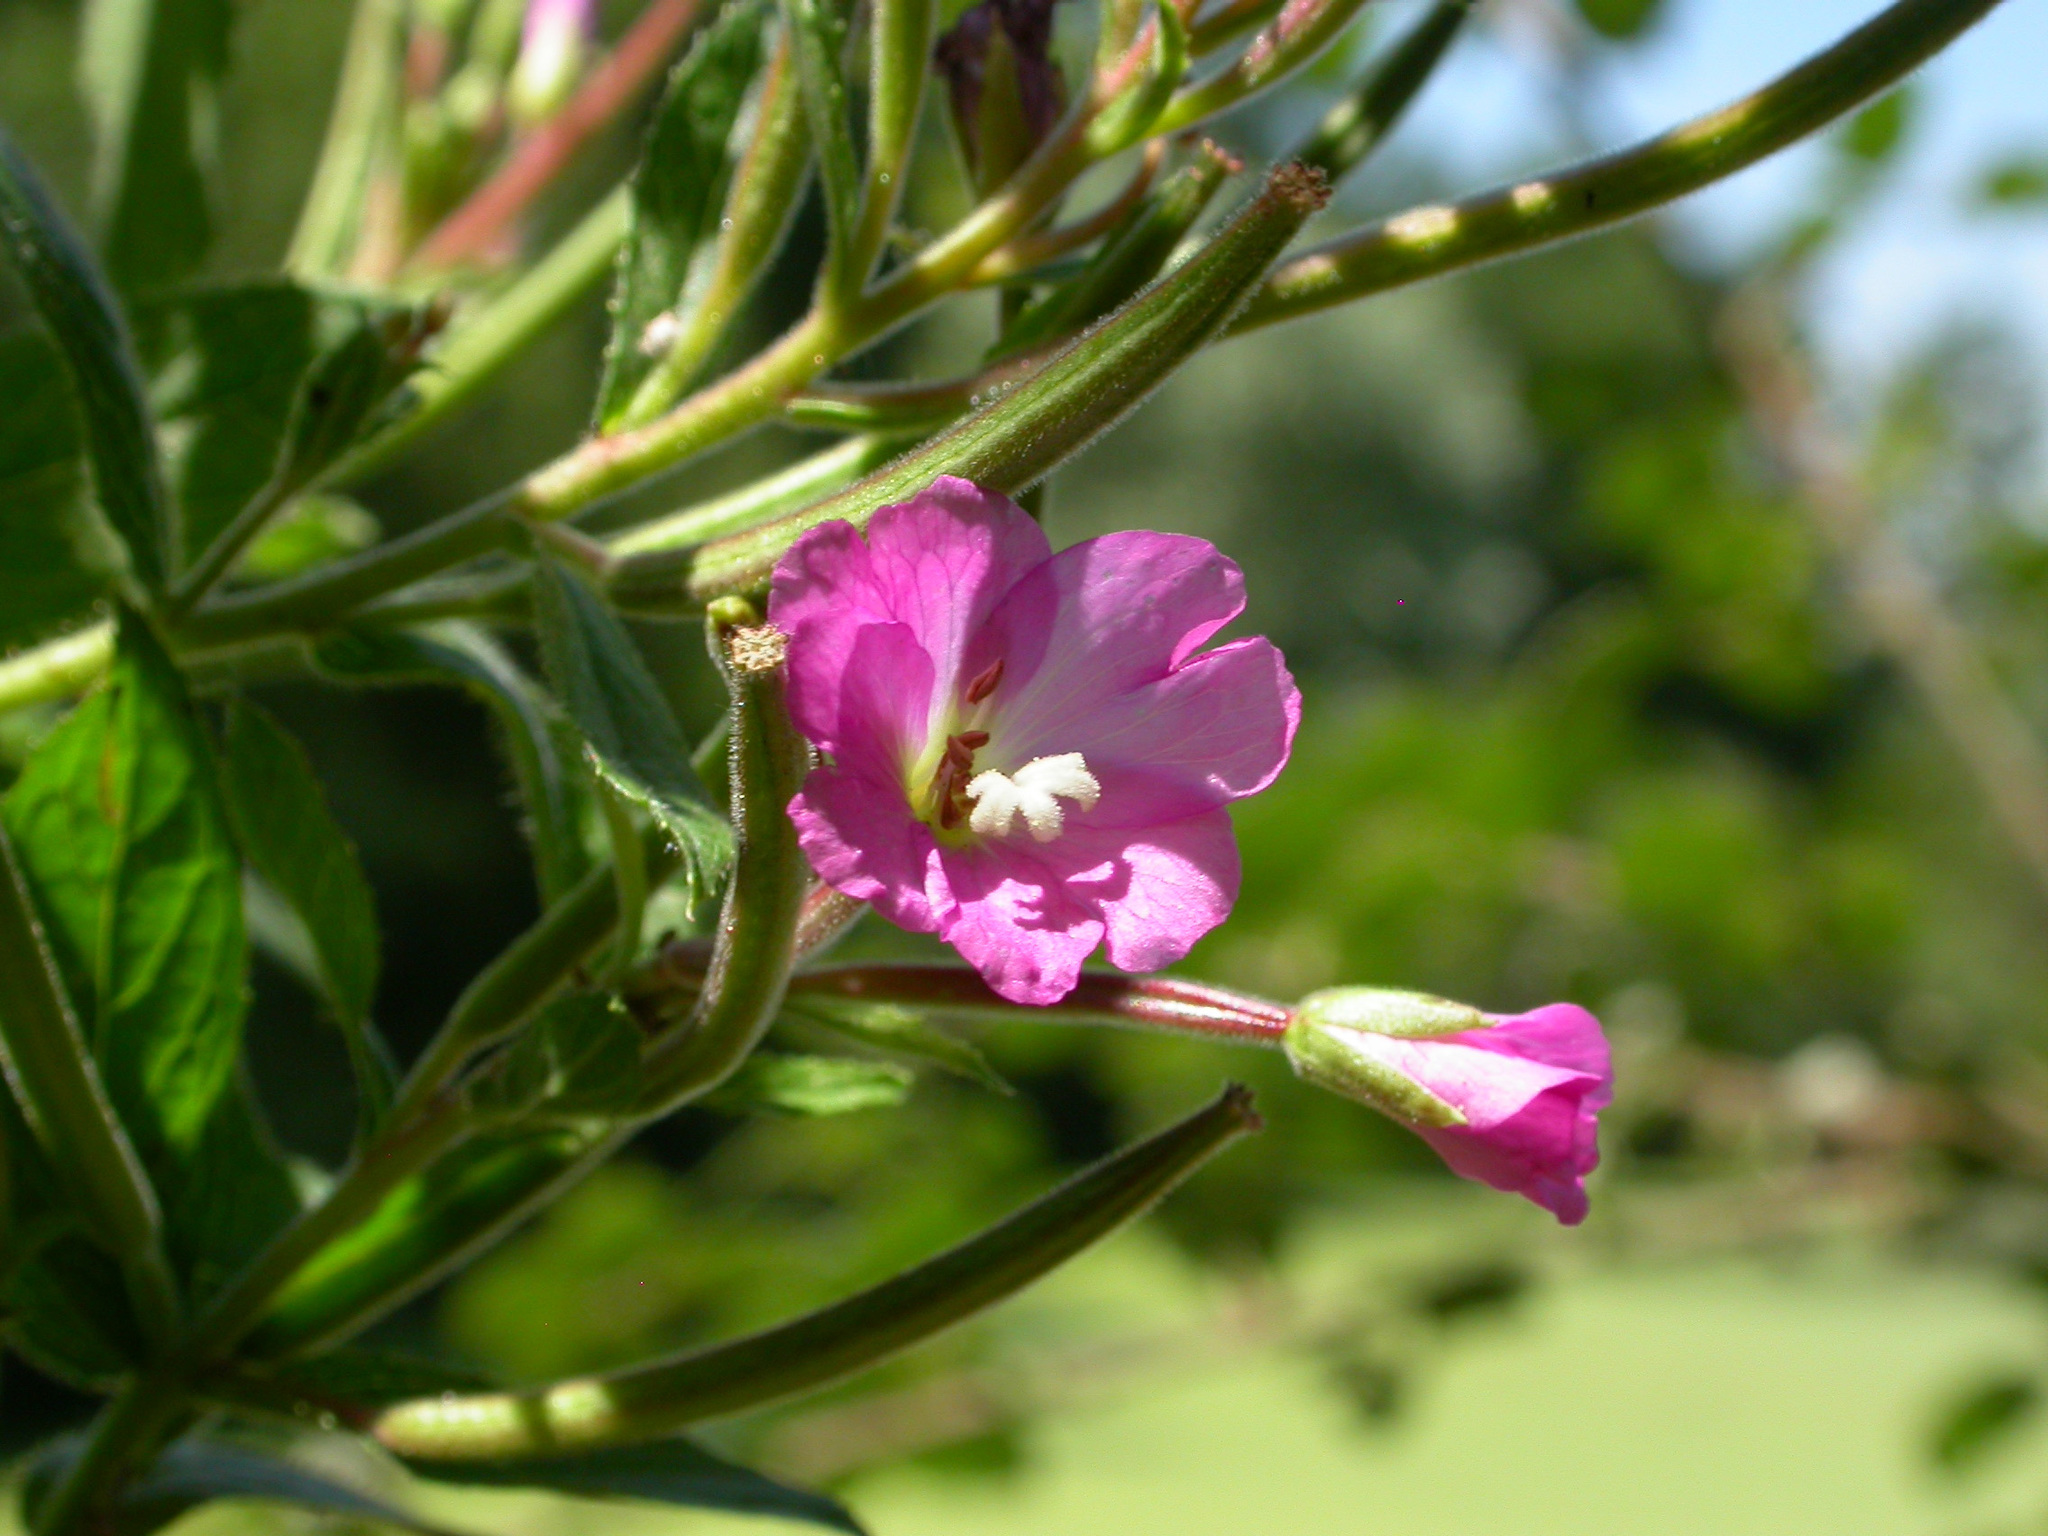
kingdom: Plantae
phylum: Tracheophyta
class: Magnoliopsida
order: Myrtales
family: Onagraceae
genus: Epilobium
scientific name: Epilobium hirsutum
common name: Great willowherb
